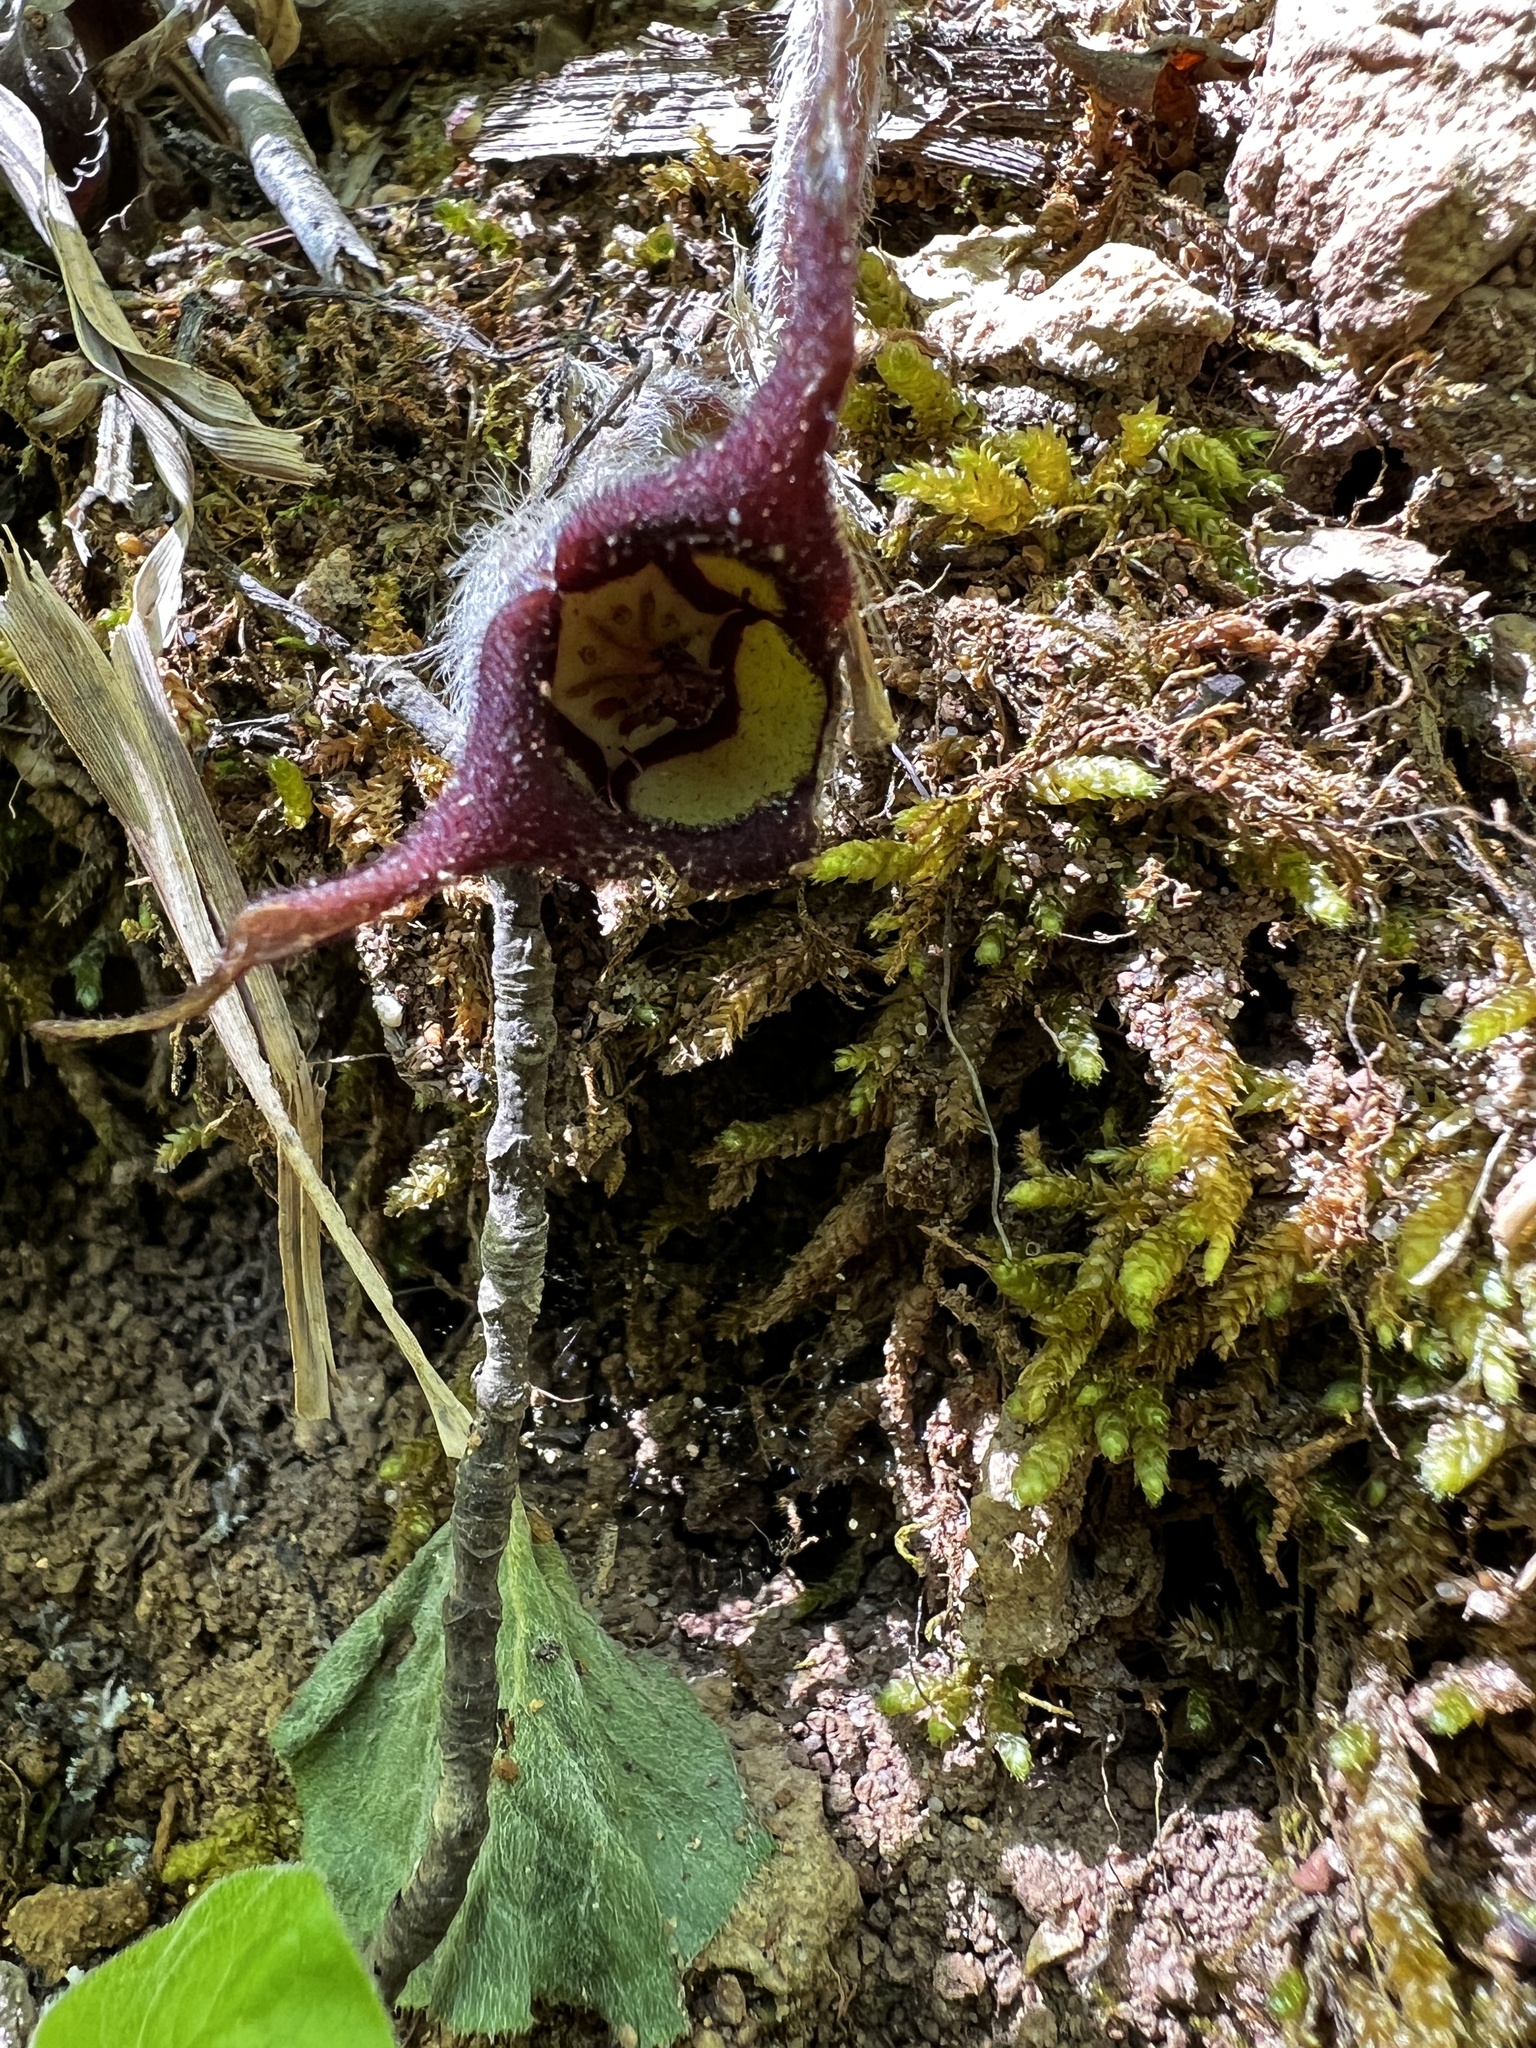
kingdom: Plantae
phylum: Tracheophyta
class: Magnoliopsida
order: Piperales
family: Aristolochiaceae
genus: Asarum
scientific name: Asarum canadense
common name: Wild ginger
